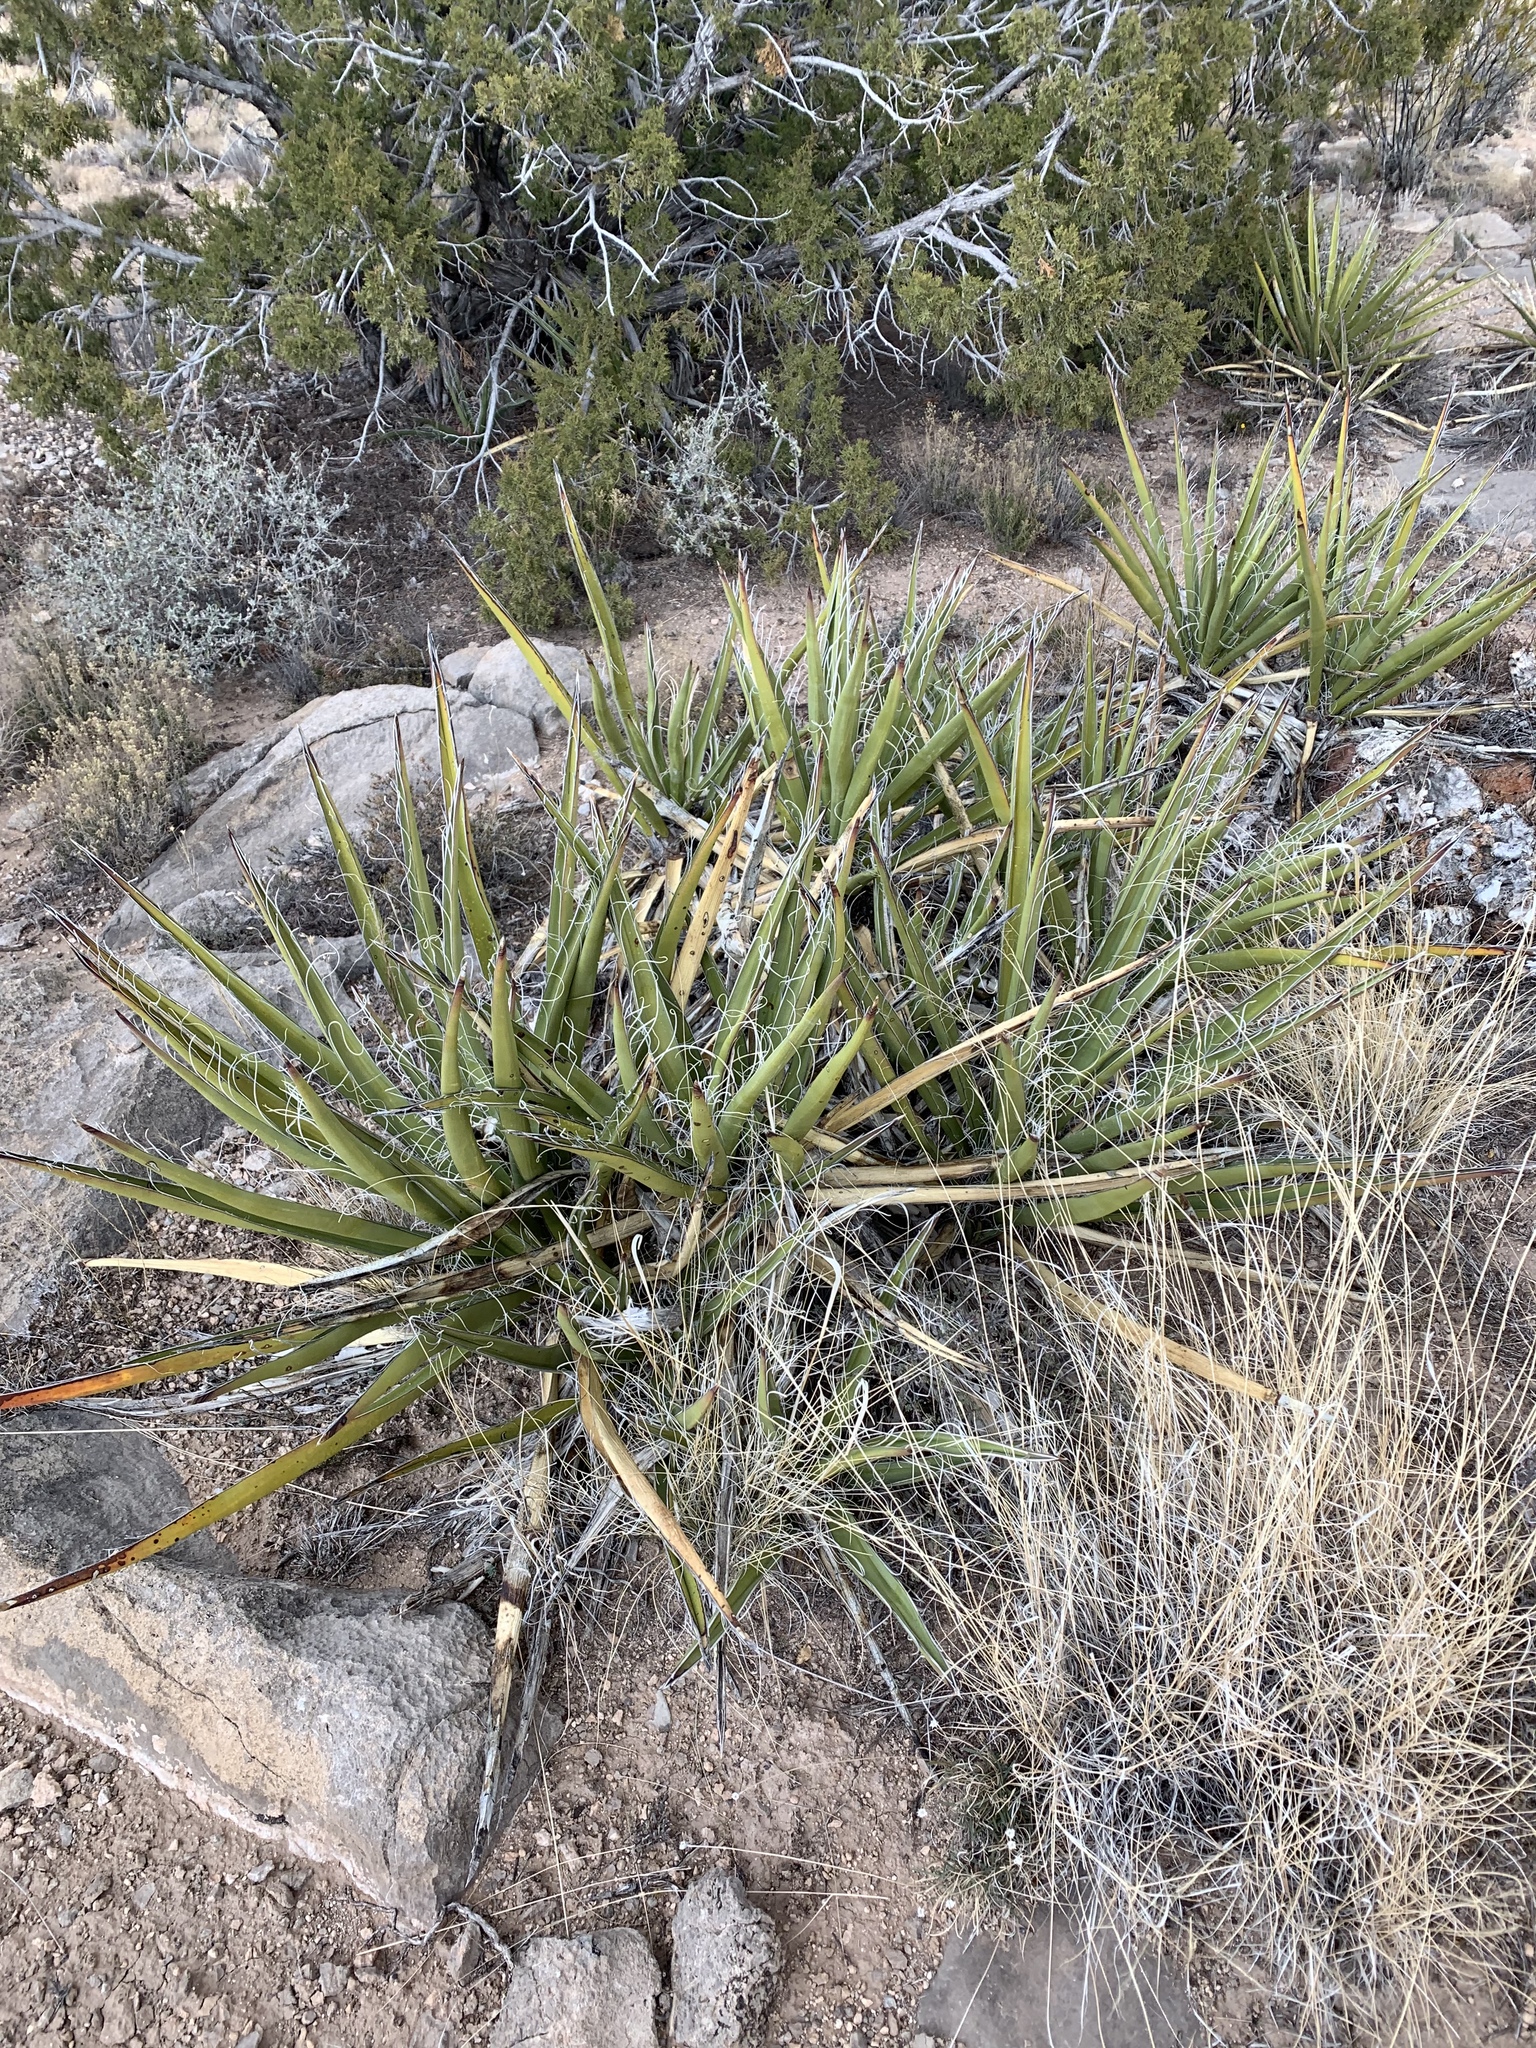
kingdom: Plantae
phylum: Tracheophyta
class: Liliopsida
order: Asparagales
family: Asparagaceae
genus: Yucca
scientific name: Yucca baccata
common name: Banana yucca
